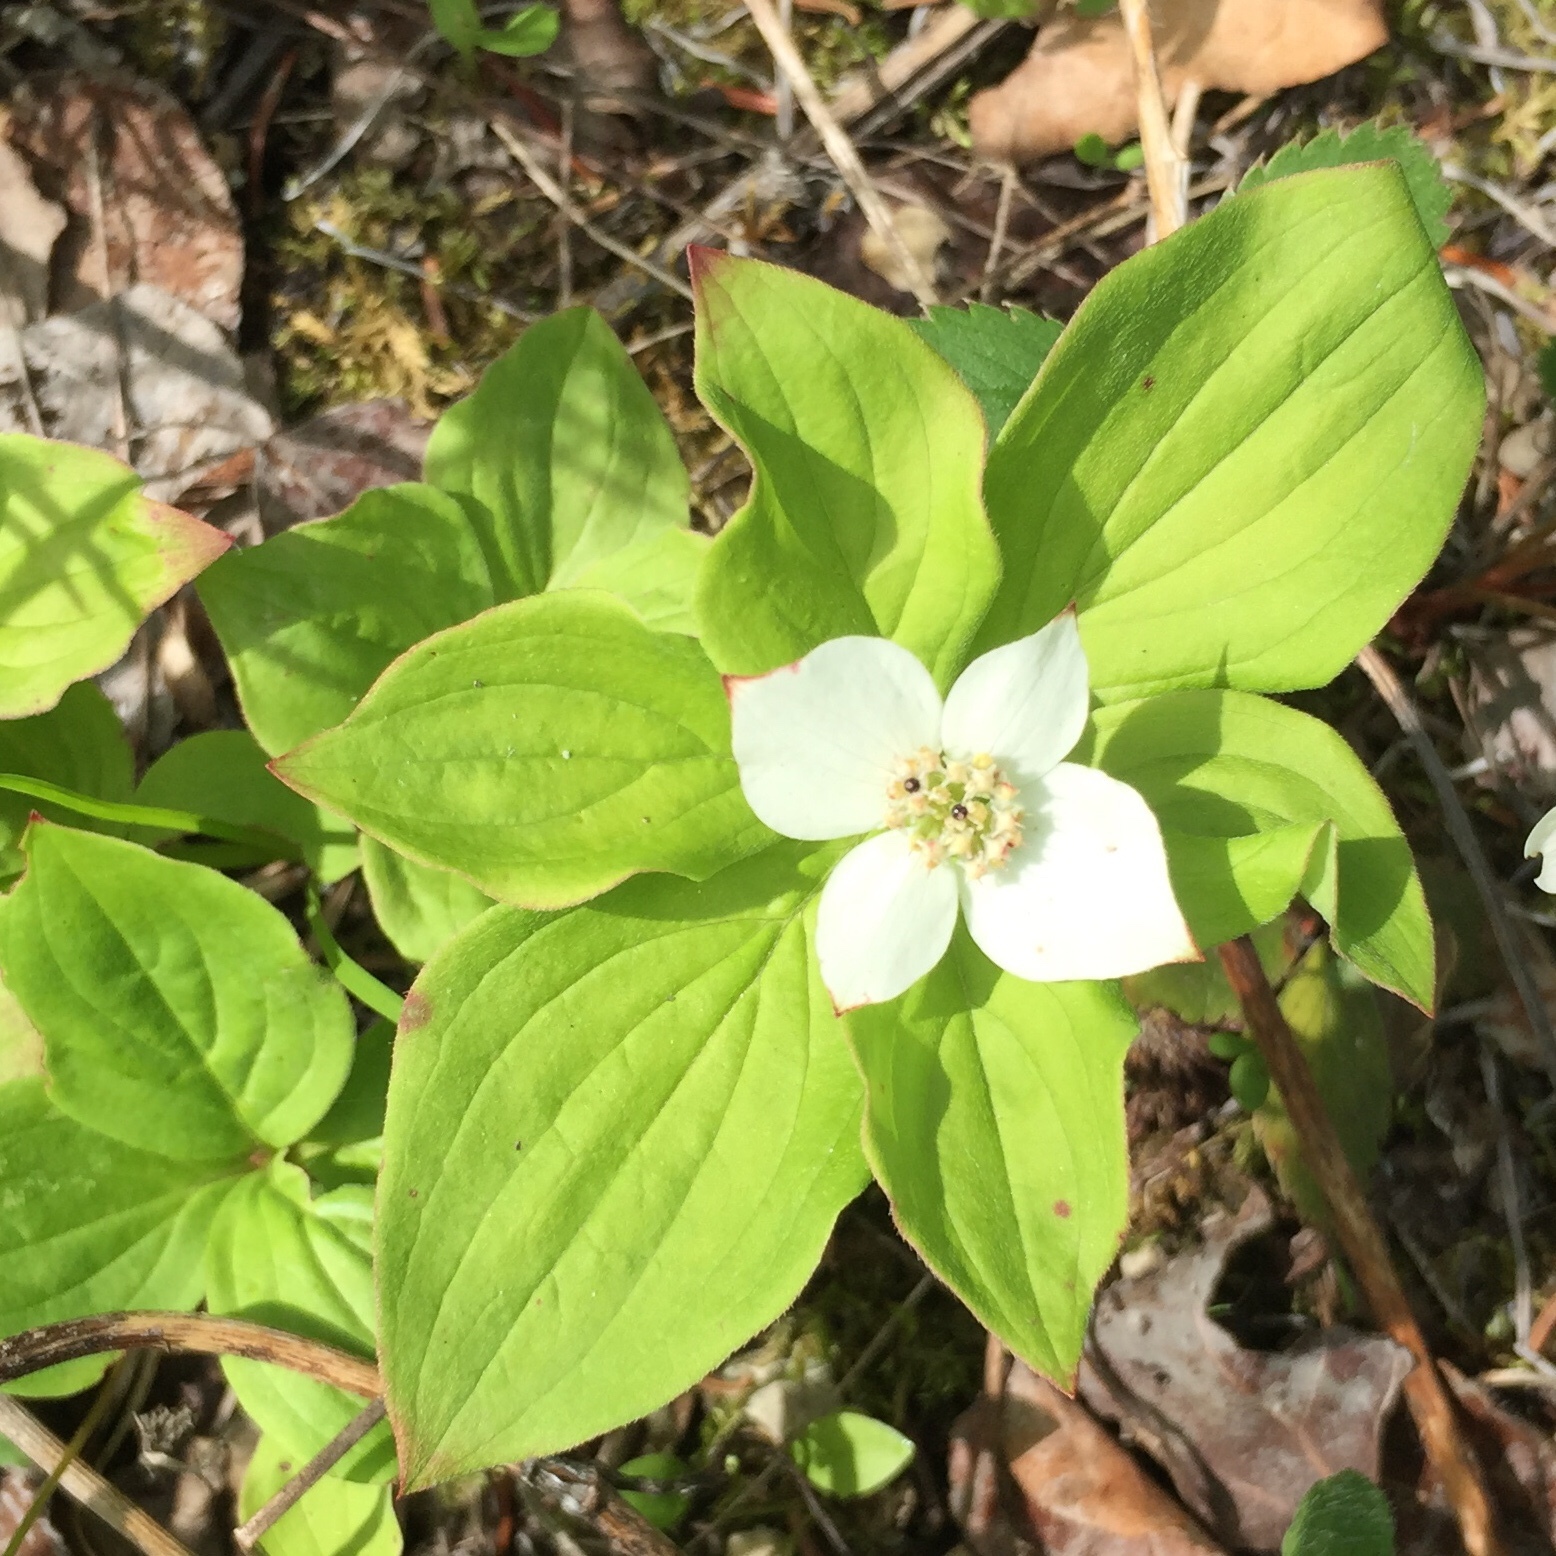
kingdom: Plantae
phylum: Tracheophyta
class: Magnoliopsida
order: Cornales
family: Cornaceae
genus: Cornus
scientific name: Cornus canadensis
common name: Creeping dogwood
